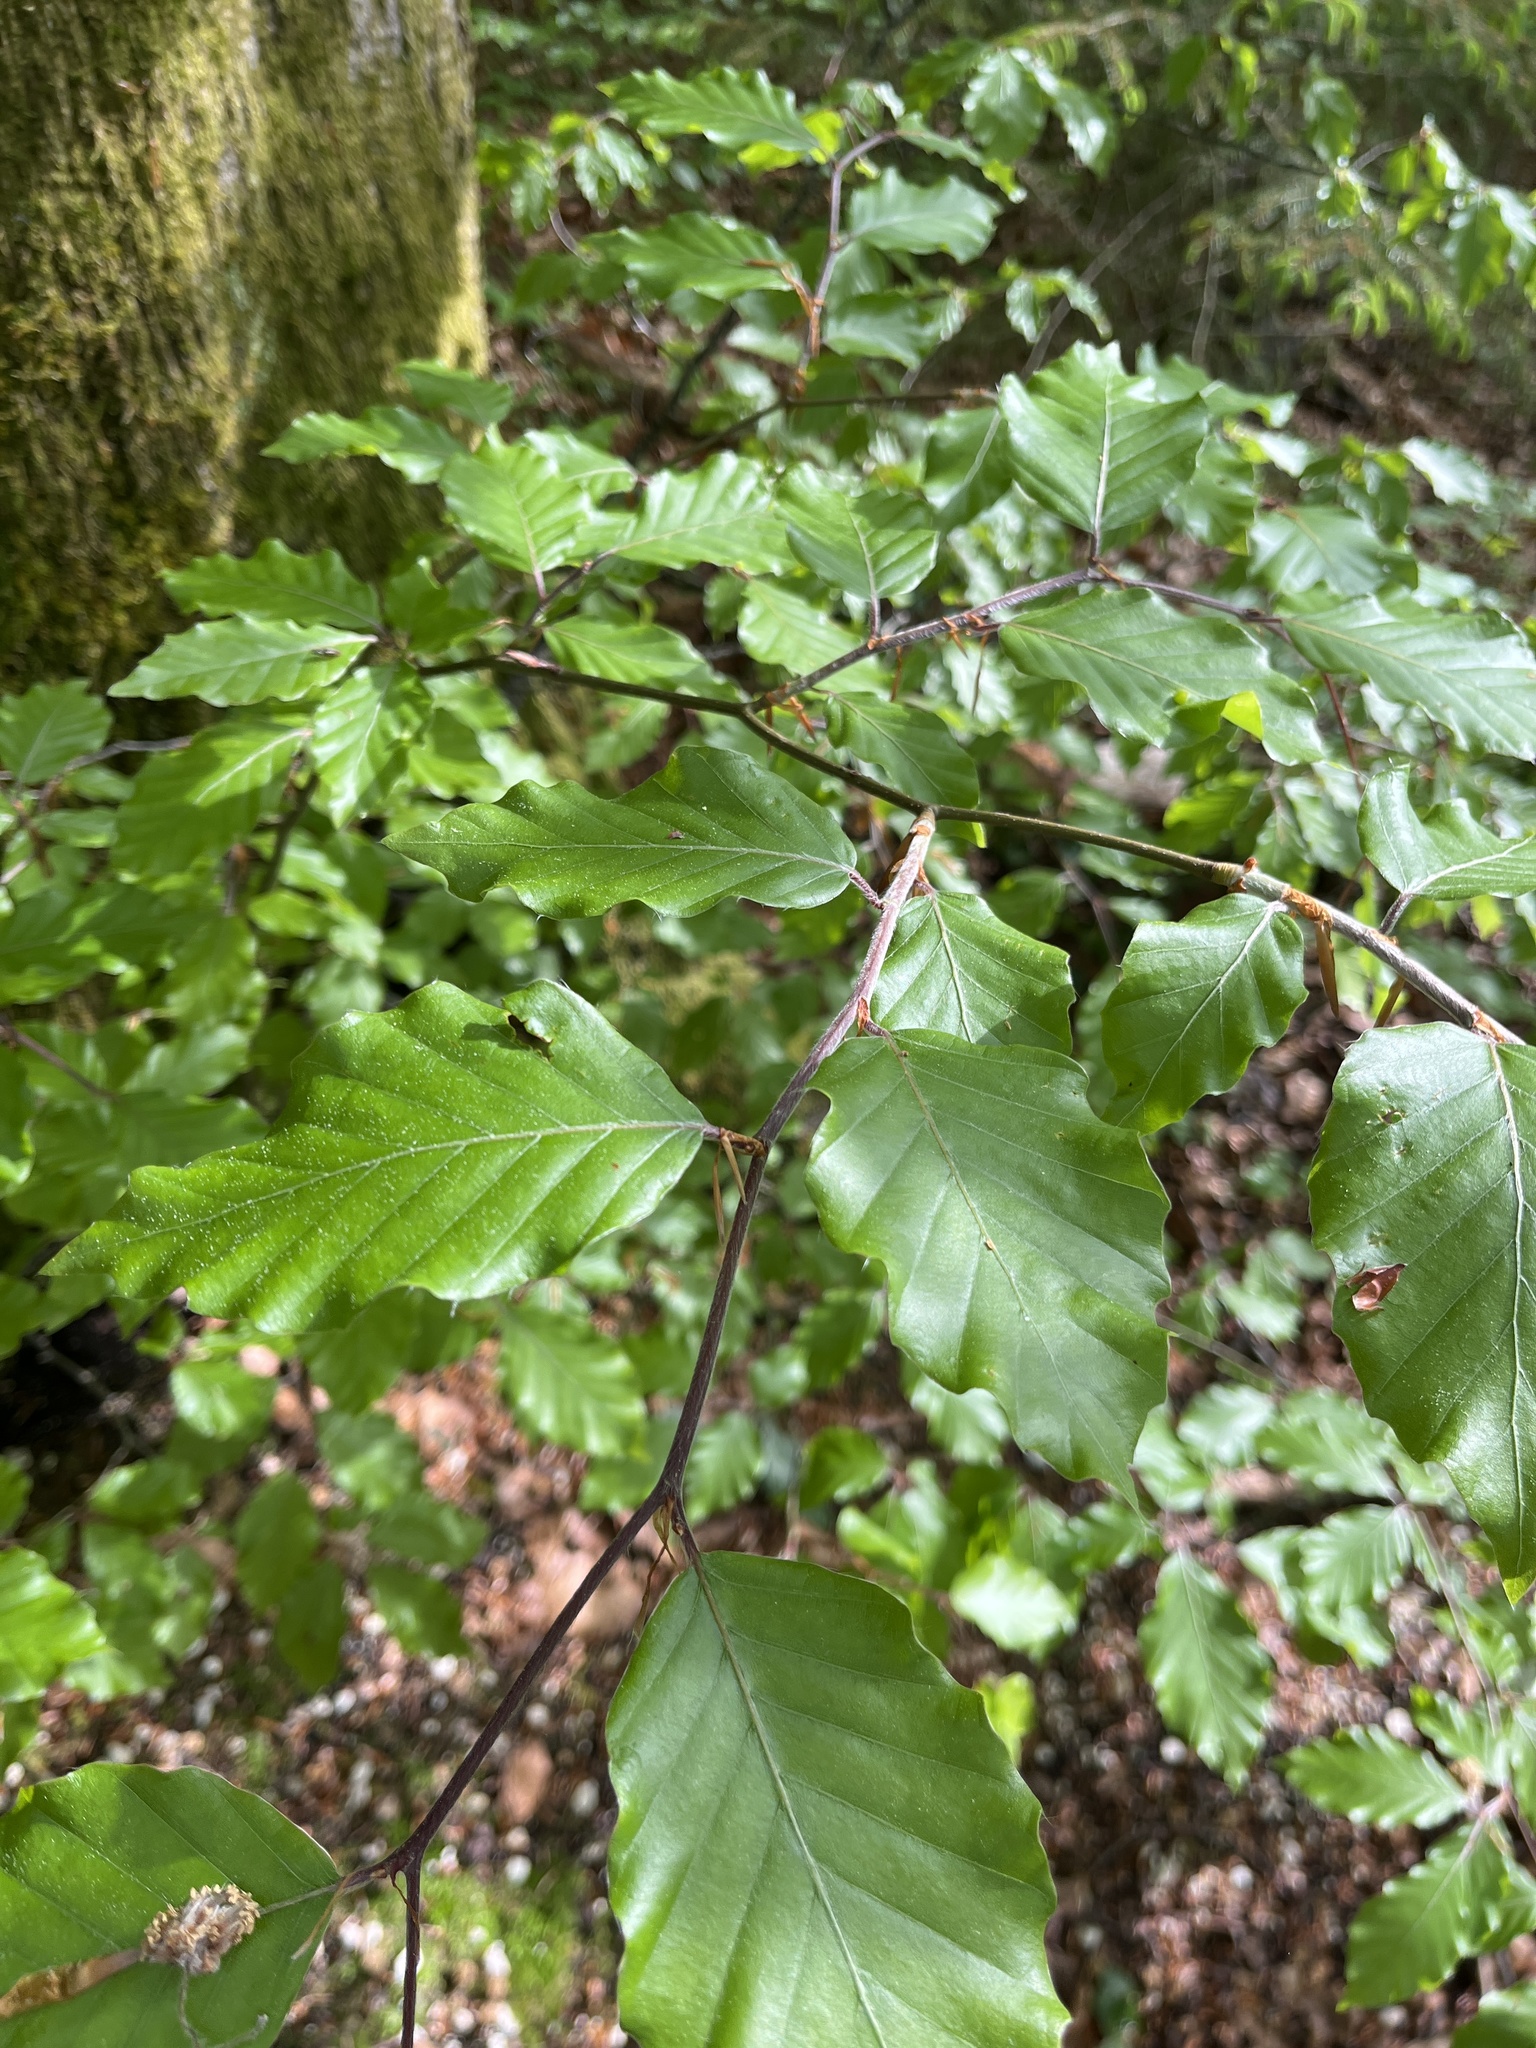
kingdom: Plantae
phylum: Tracheophyta
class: Magnoliopsida
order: Fagales
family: Fagaceae
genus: Fagus
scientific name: Fagus sylvatica
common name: Beech
